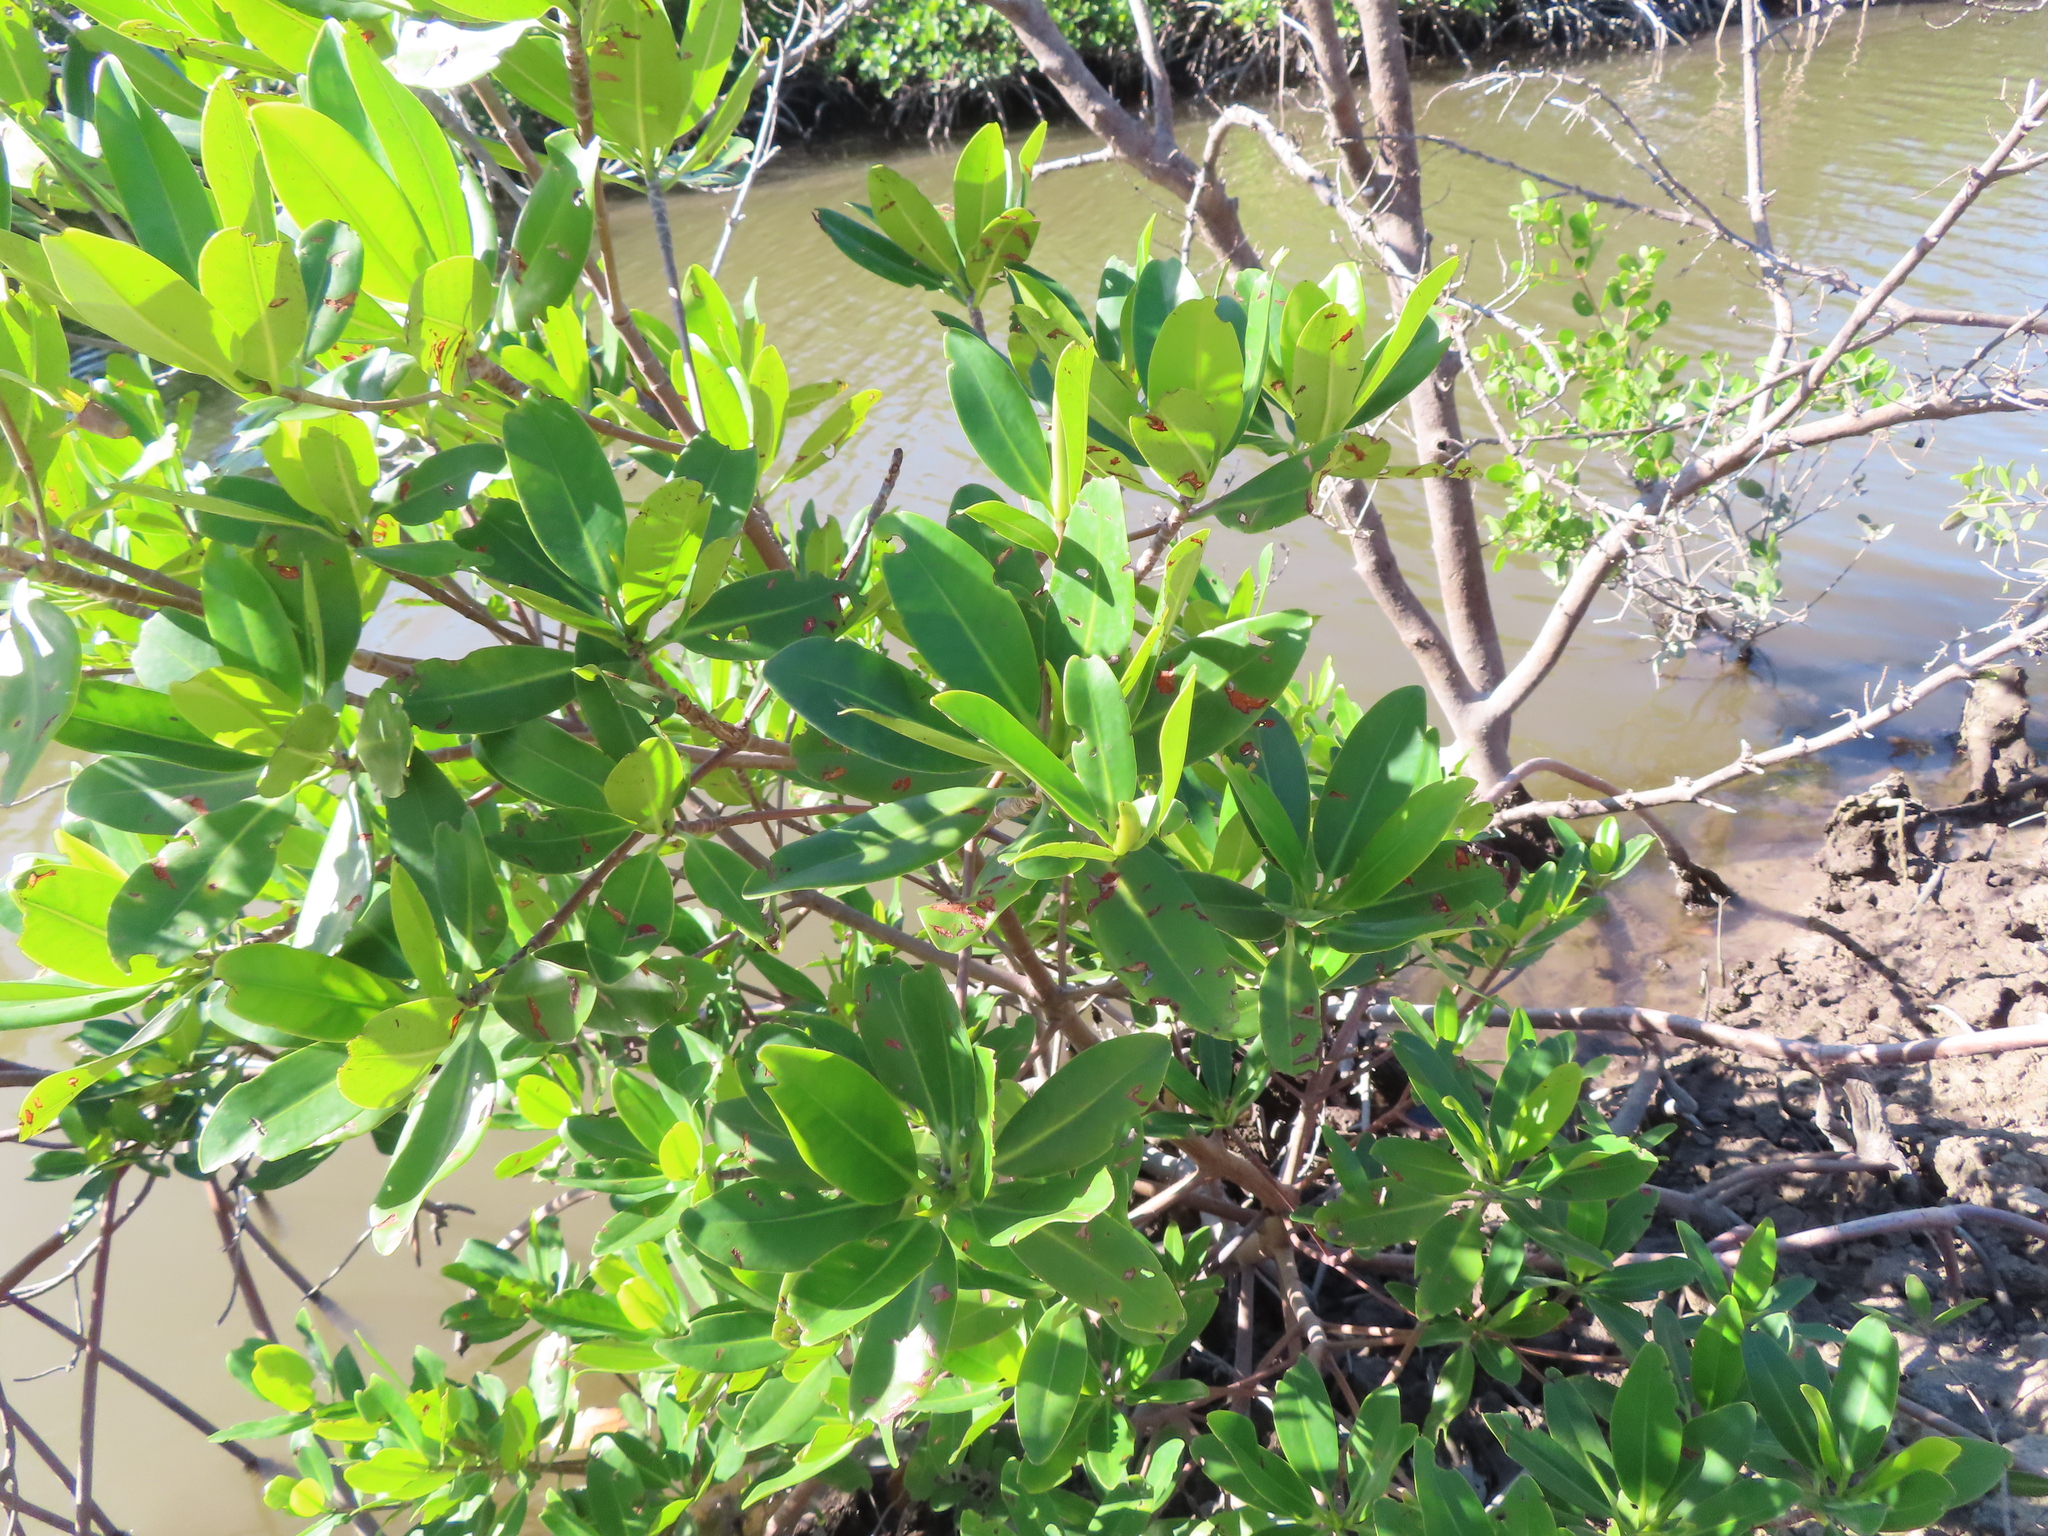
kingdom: Plantae
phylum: Tracheophyta
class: Magnoliopsida
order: Malpighiales
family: Rhizophoraceae
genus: Rhizophora
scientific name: Rhizophora mangle
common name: Red mangrove
